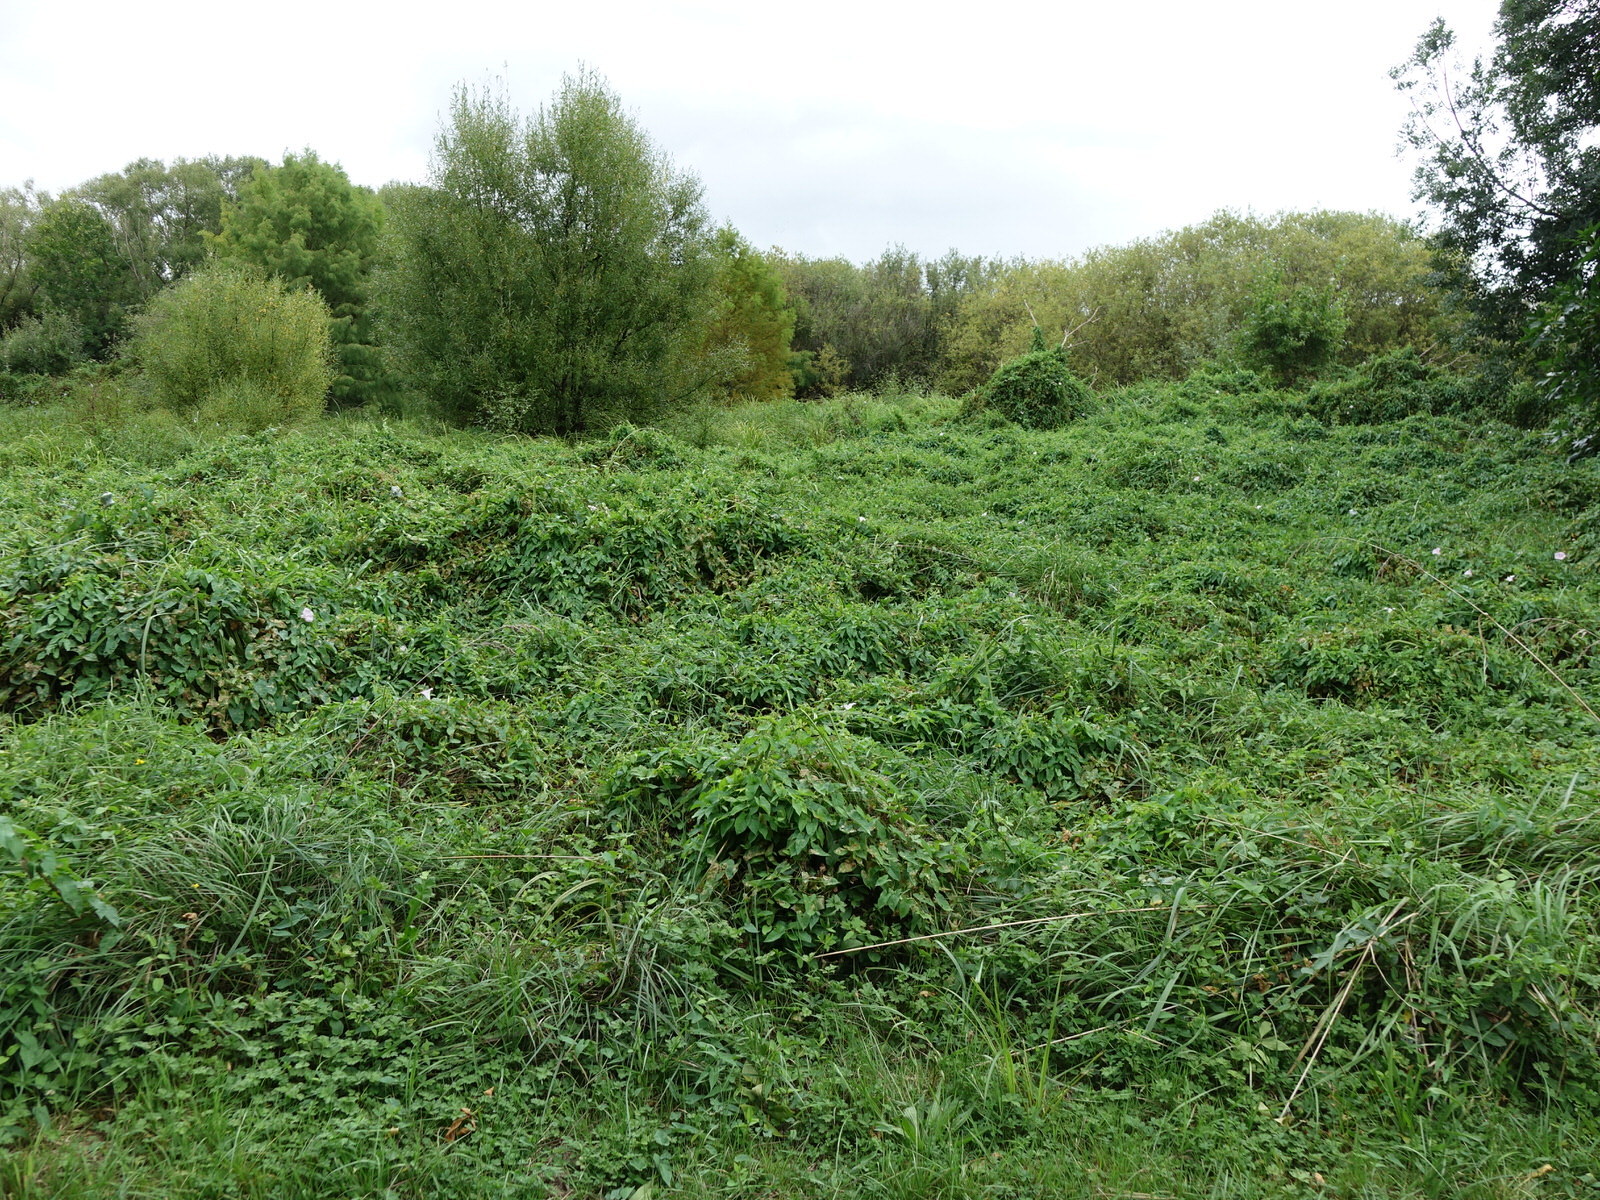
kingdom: Plantae
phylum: Tracheophyta
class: Magnoliopsida
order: Solanales
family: Convolvulaceae
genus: Calystegia
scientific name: Calystegia sepium
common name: Hedge bindweed
